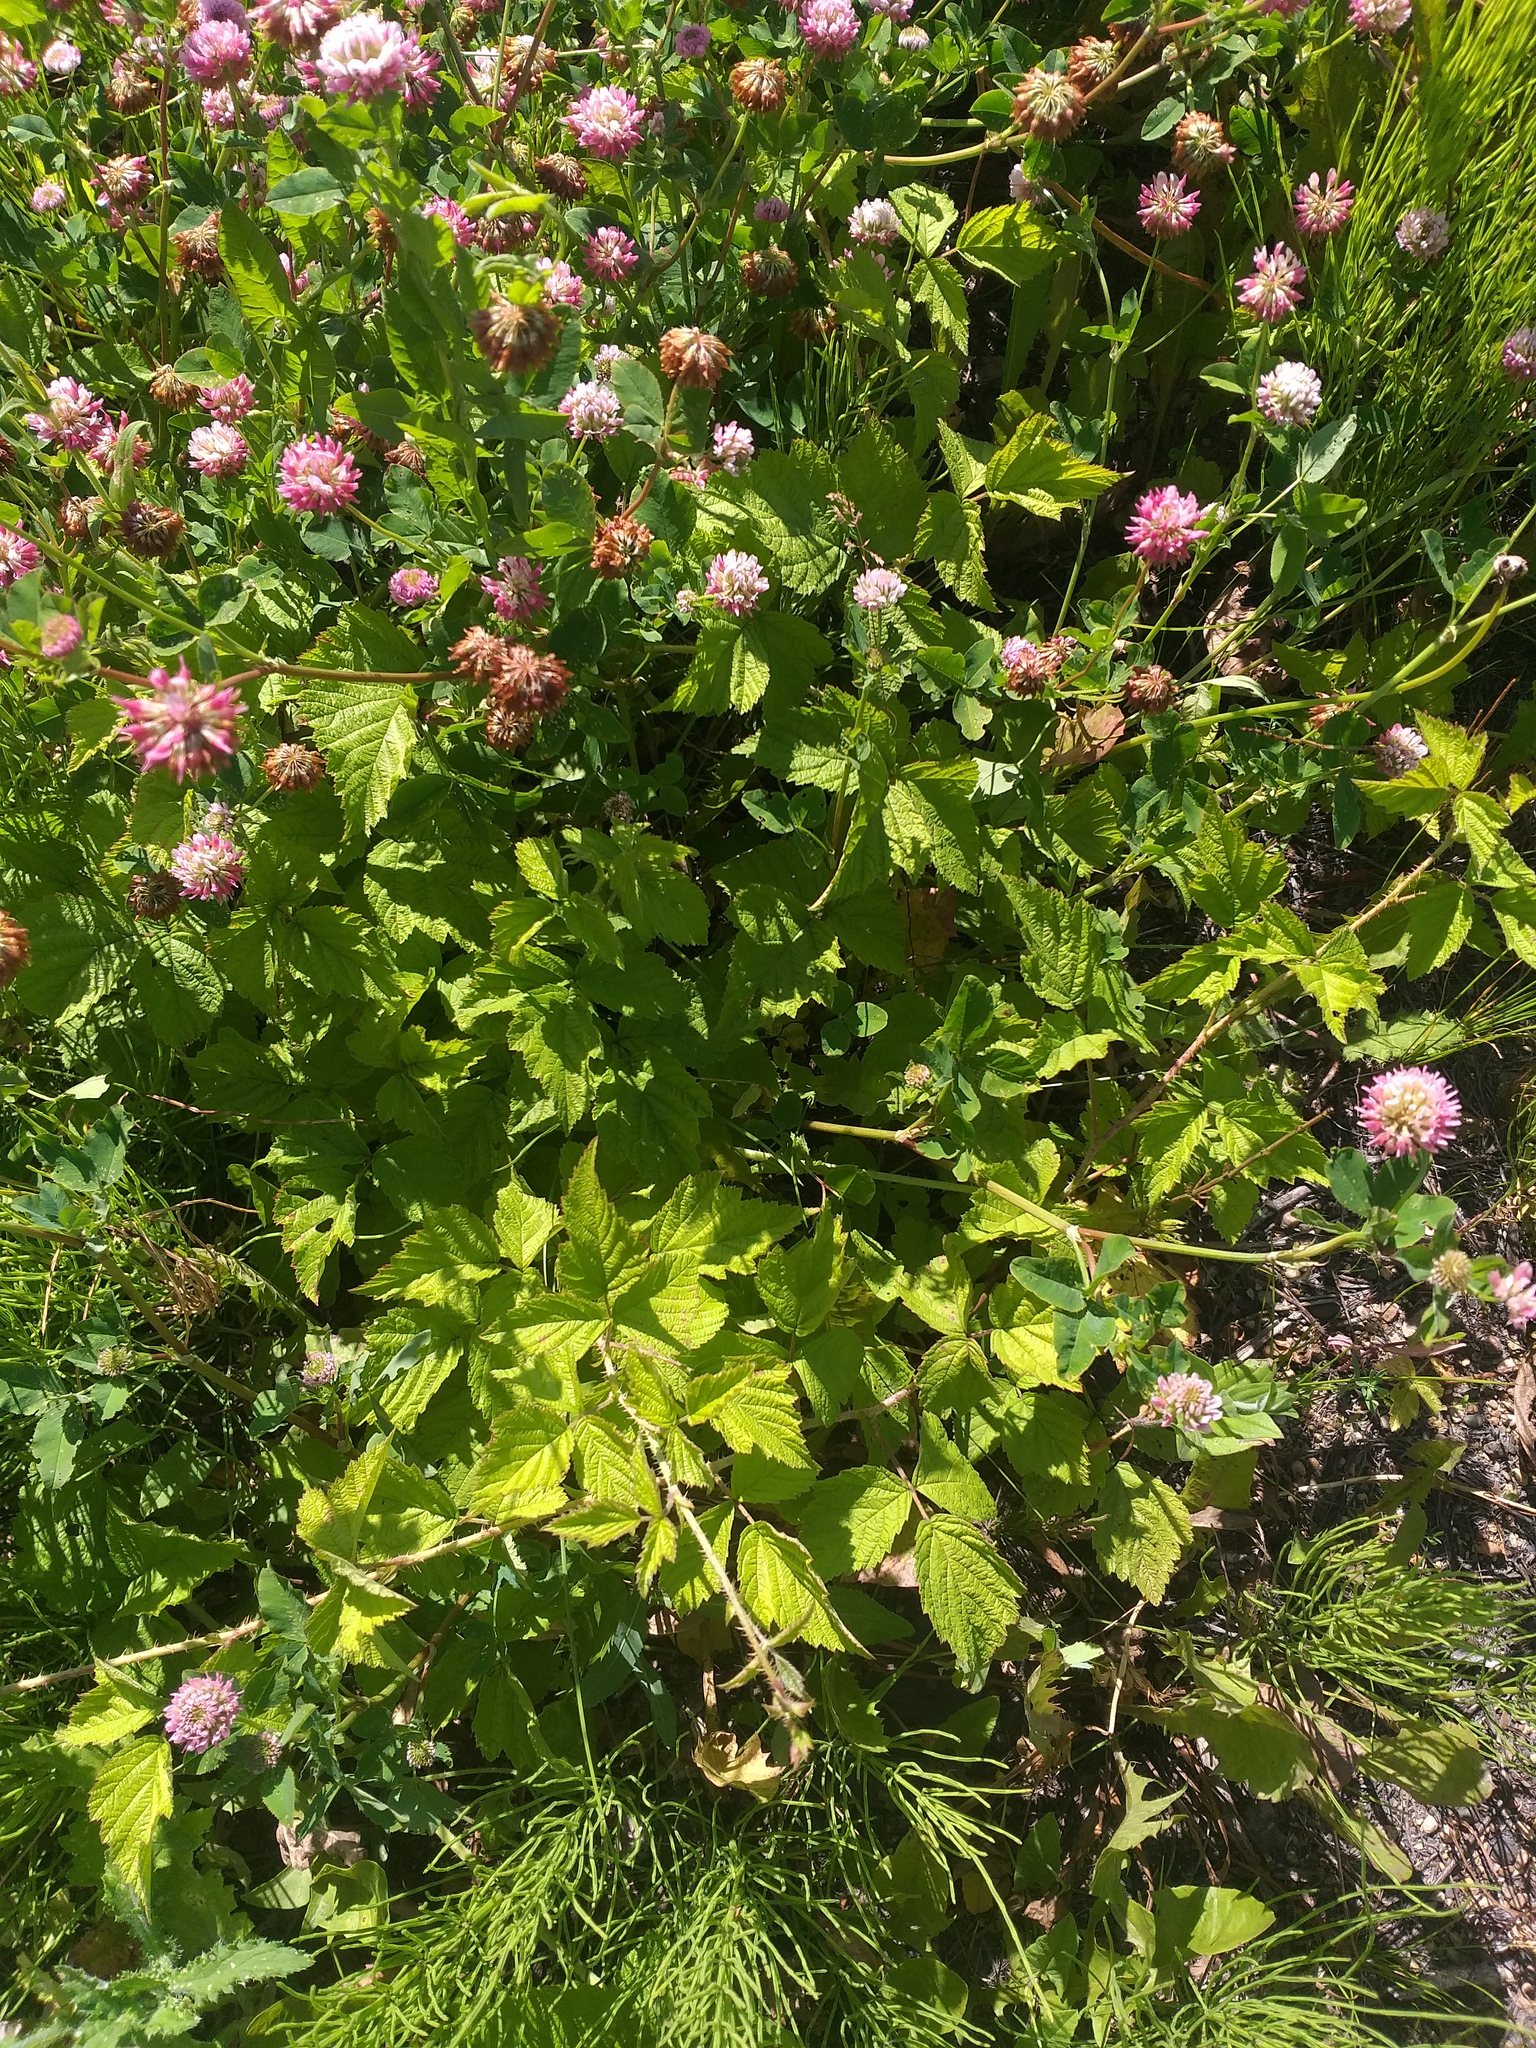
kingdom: Plantae
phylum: Tracheophyta
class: Magnoliopsida
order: Fabales
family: Fabaceae
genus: Trifolium
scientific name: Trifolium hybridum
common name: Alsike clover
